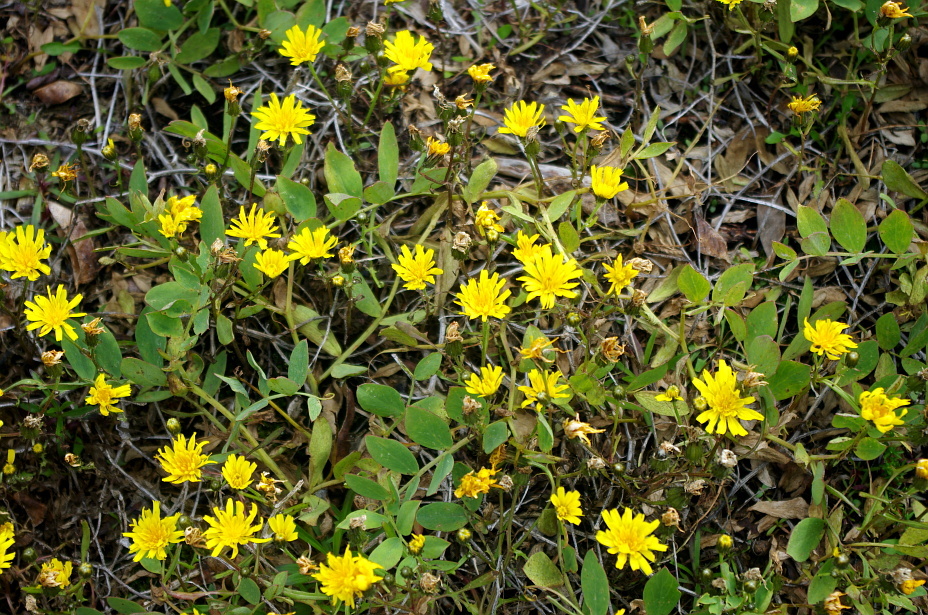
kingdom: Plantae
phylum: Tracheophyta
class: Magnoliopsida
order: Asterales
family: Asteraceae
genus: Crepis
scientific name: Crepis nigrescens
